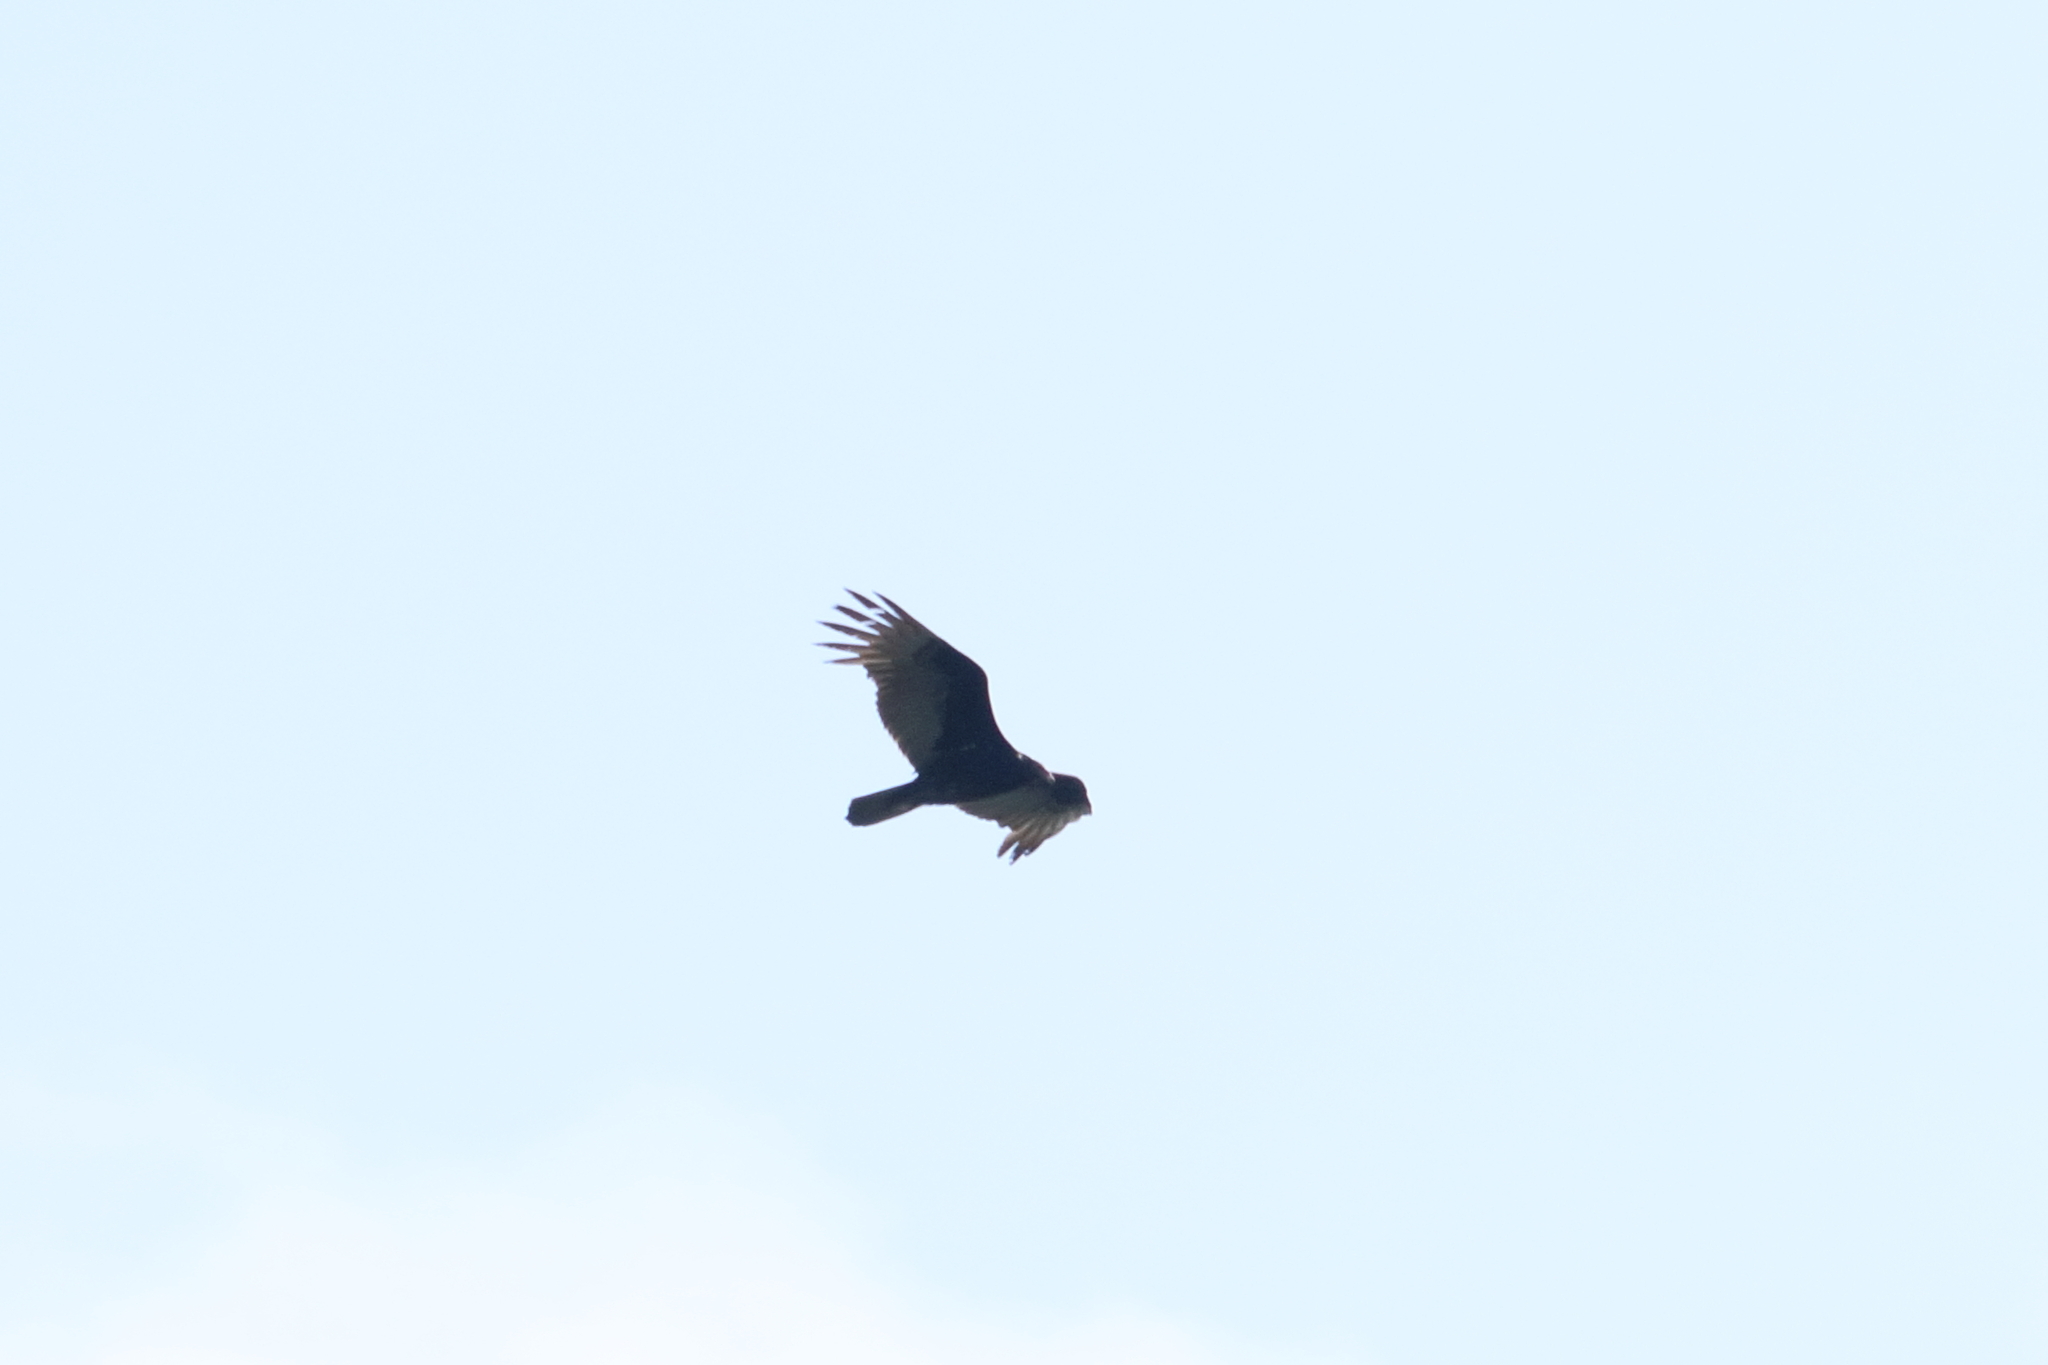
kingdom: Animalia
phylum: Chordata
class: Aves
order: Accipitriformes
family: Cathartidae
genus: Cathartes
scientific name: Cathartes aura
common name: Turkey vulture
